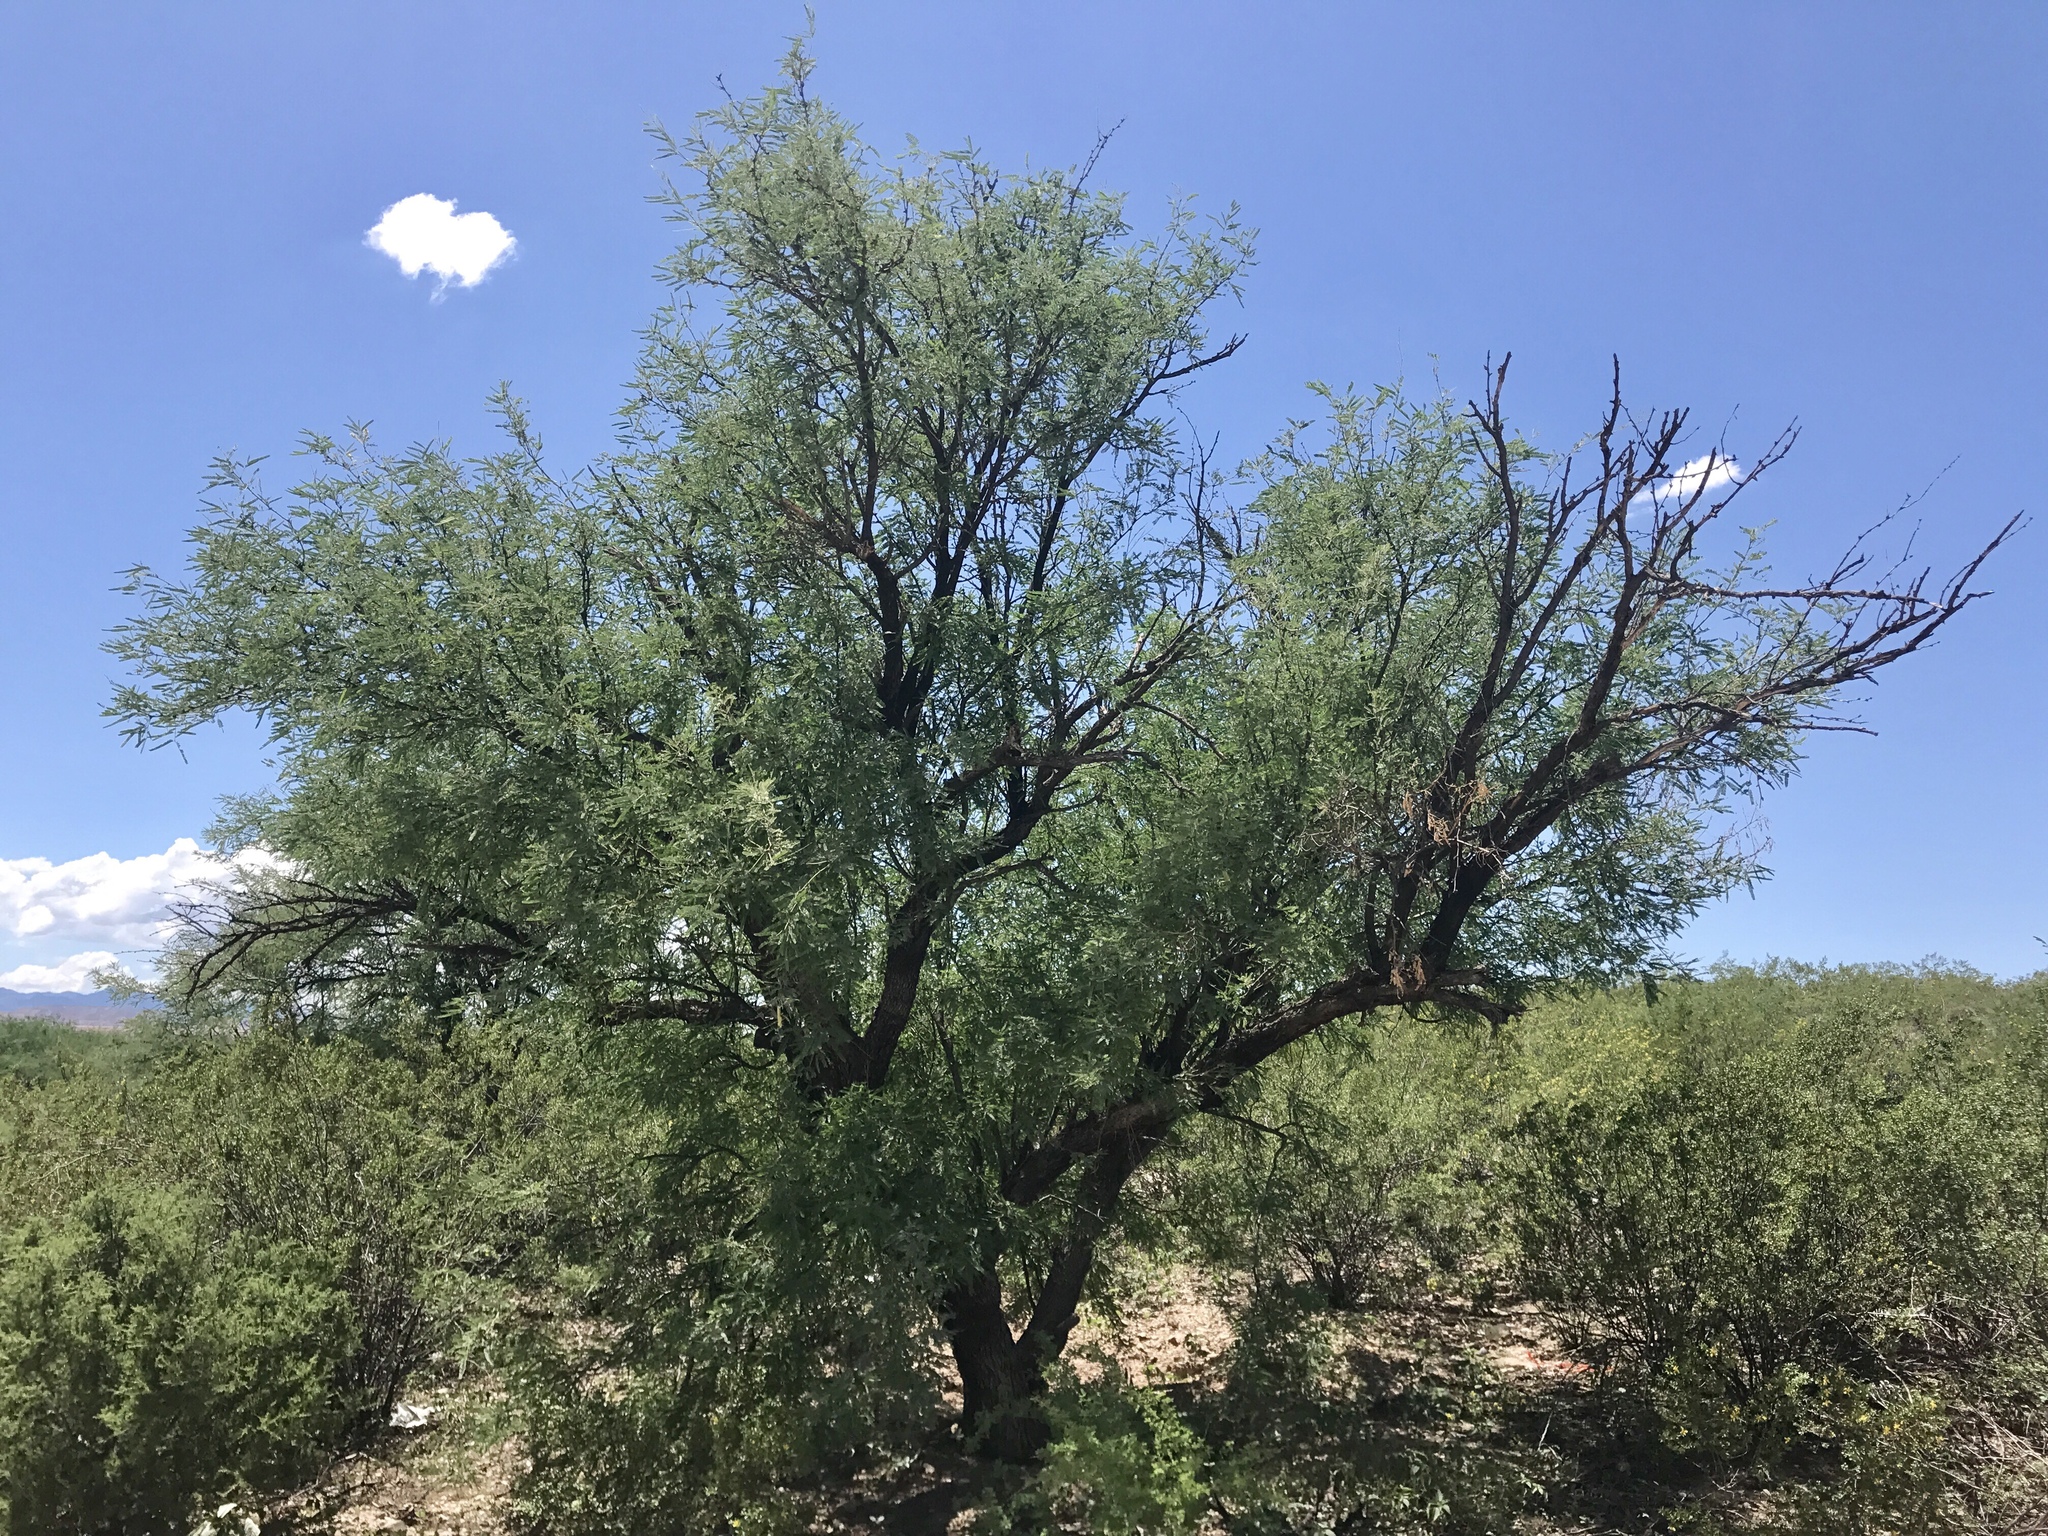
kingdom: Plantae
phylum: Tracheophyta
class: Magnoliopsida
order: Fabales
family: Fabaceae
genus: Prosopis
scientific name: Prosopis velutina
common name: Velvet mesquite
